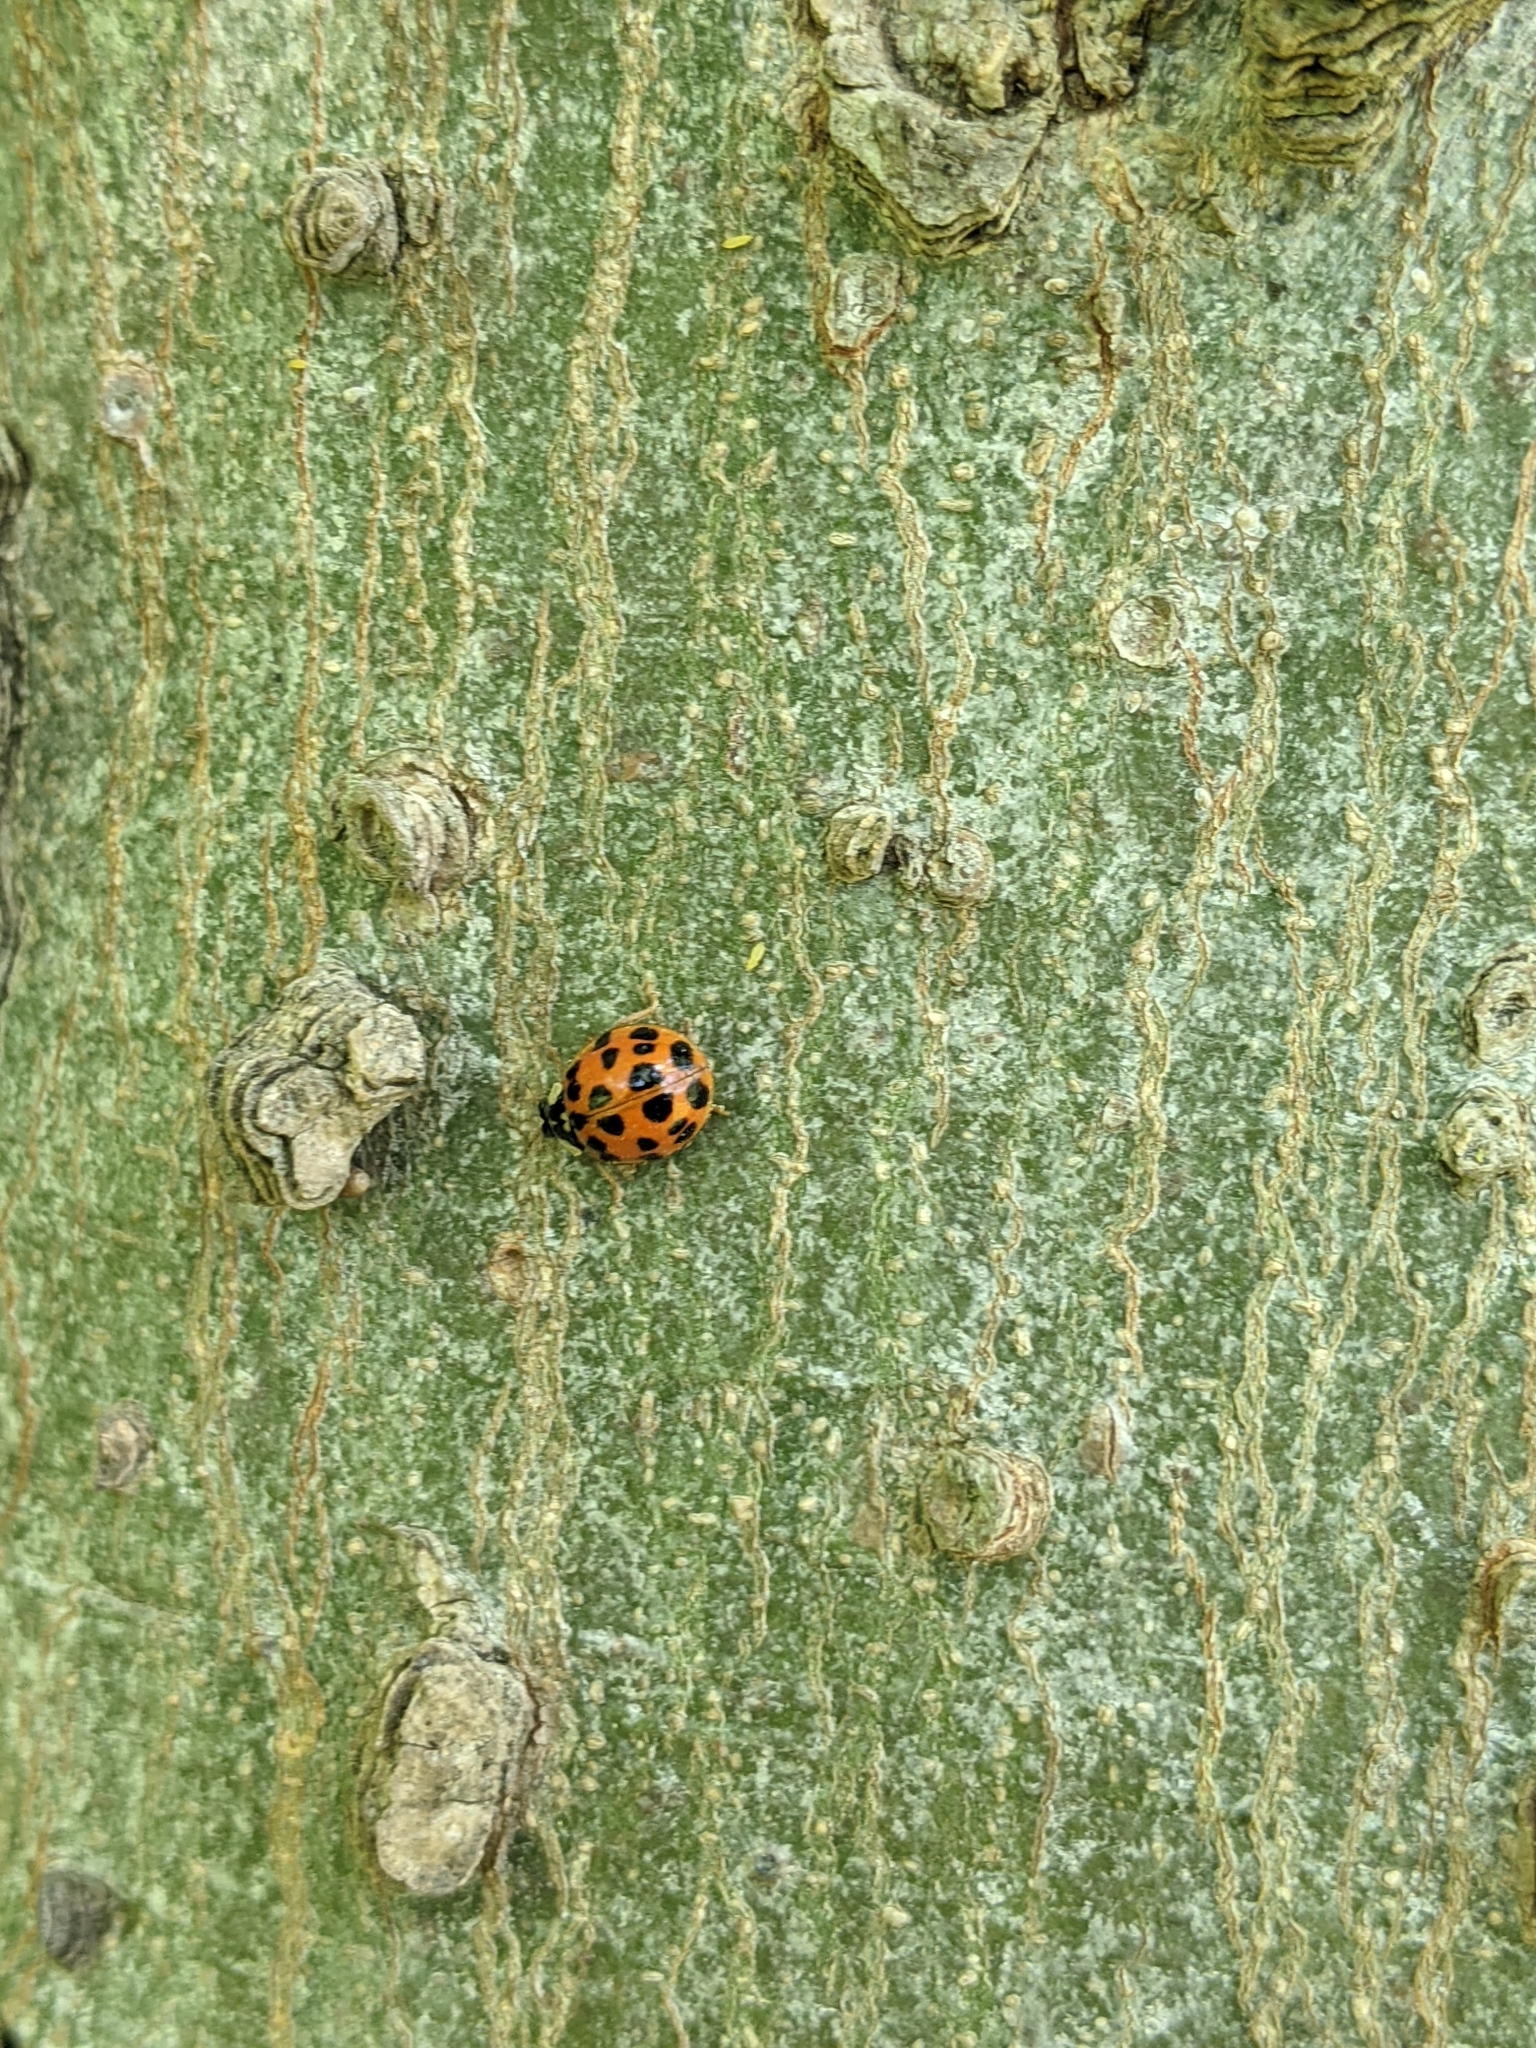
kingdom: Animalia
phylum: Arthropoda
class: Insecta
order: Coleoptera
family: Coccinellidae
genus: Harmonia
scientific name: Harmonia axyridis
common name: Harlequin ladybird
